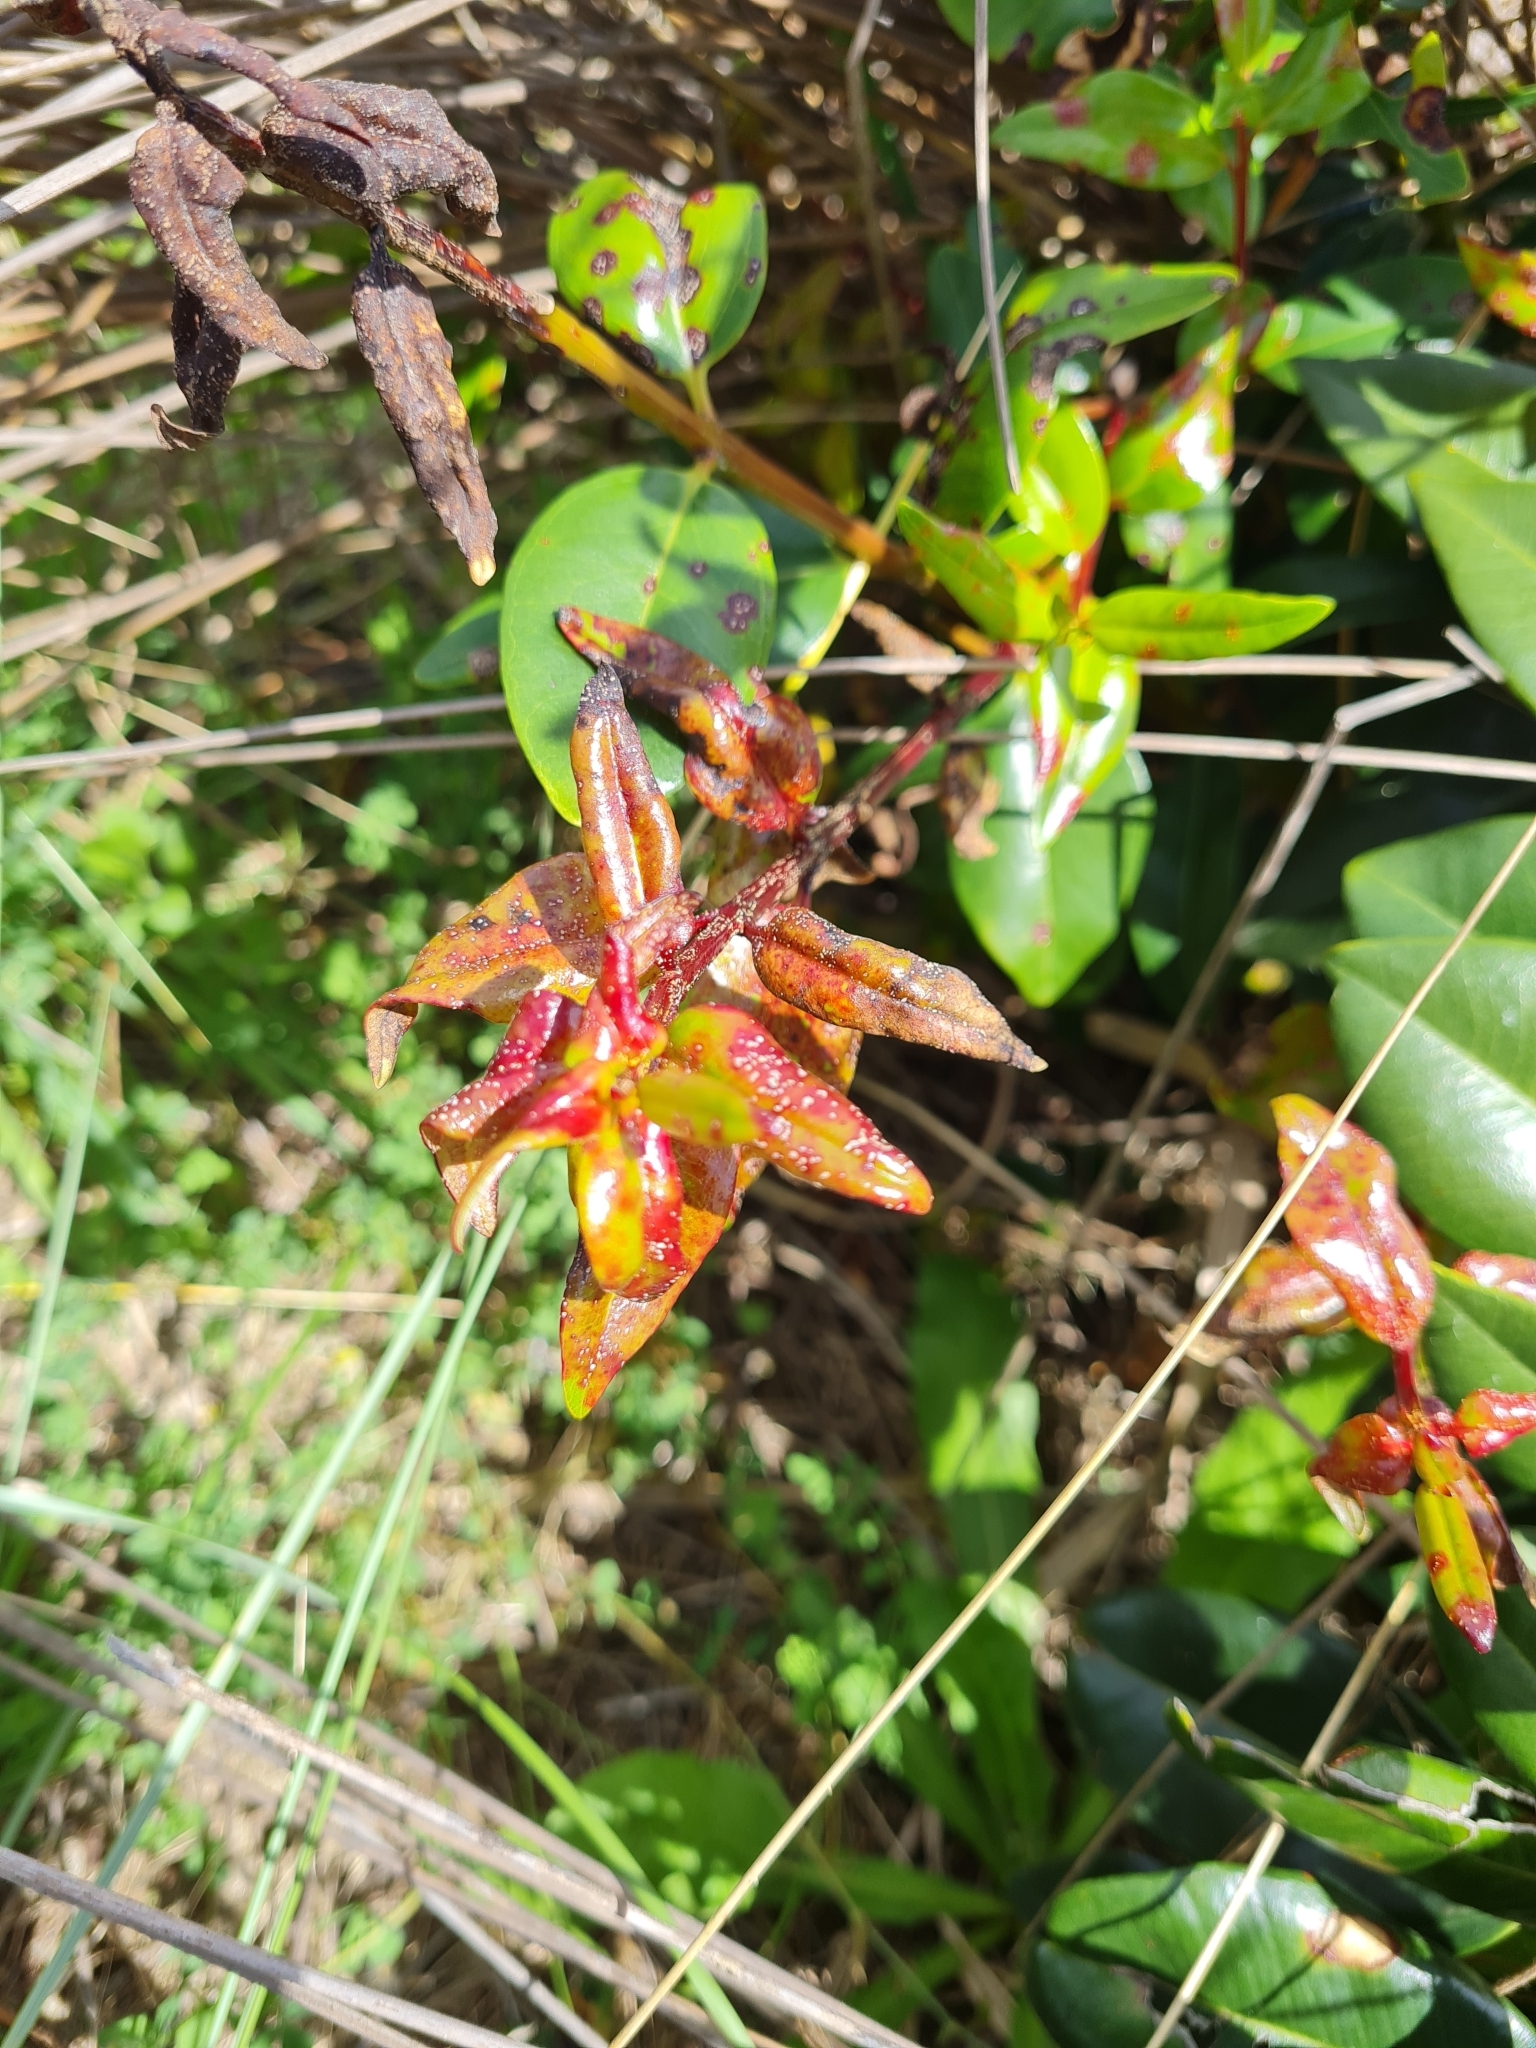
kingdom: Fungi
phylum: Basidiomycota
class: Pucciniomycetes
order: Pucciniales
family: Sphaerophragmiaceae
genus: Austropuccinia
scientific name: Austropuccinia psidii
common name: Myrtle rust
